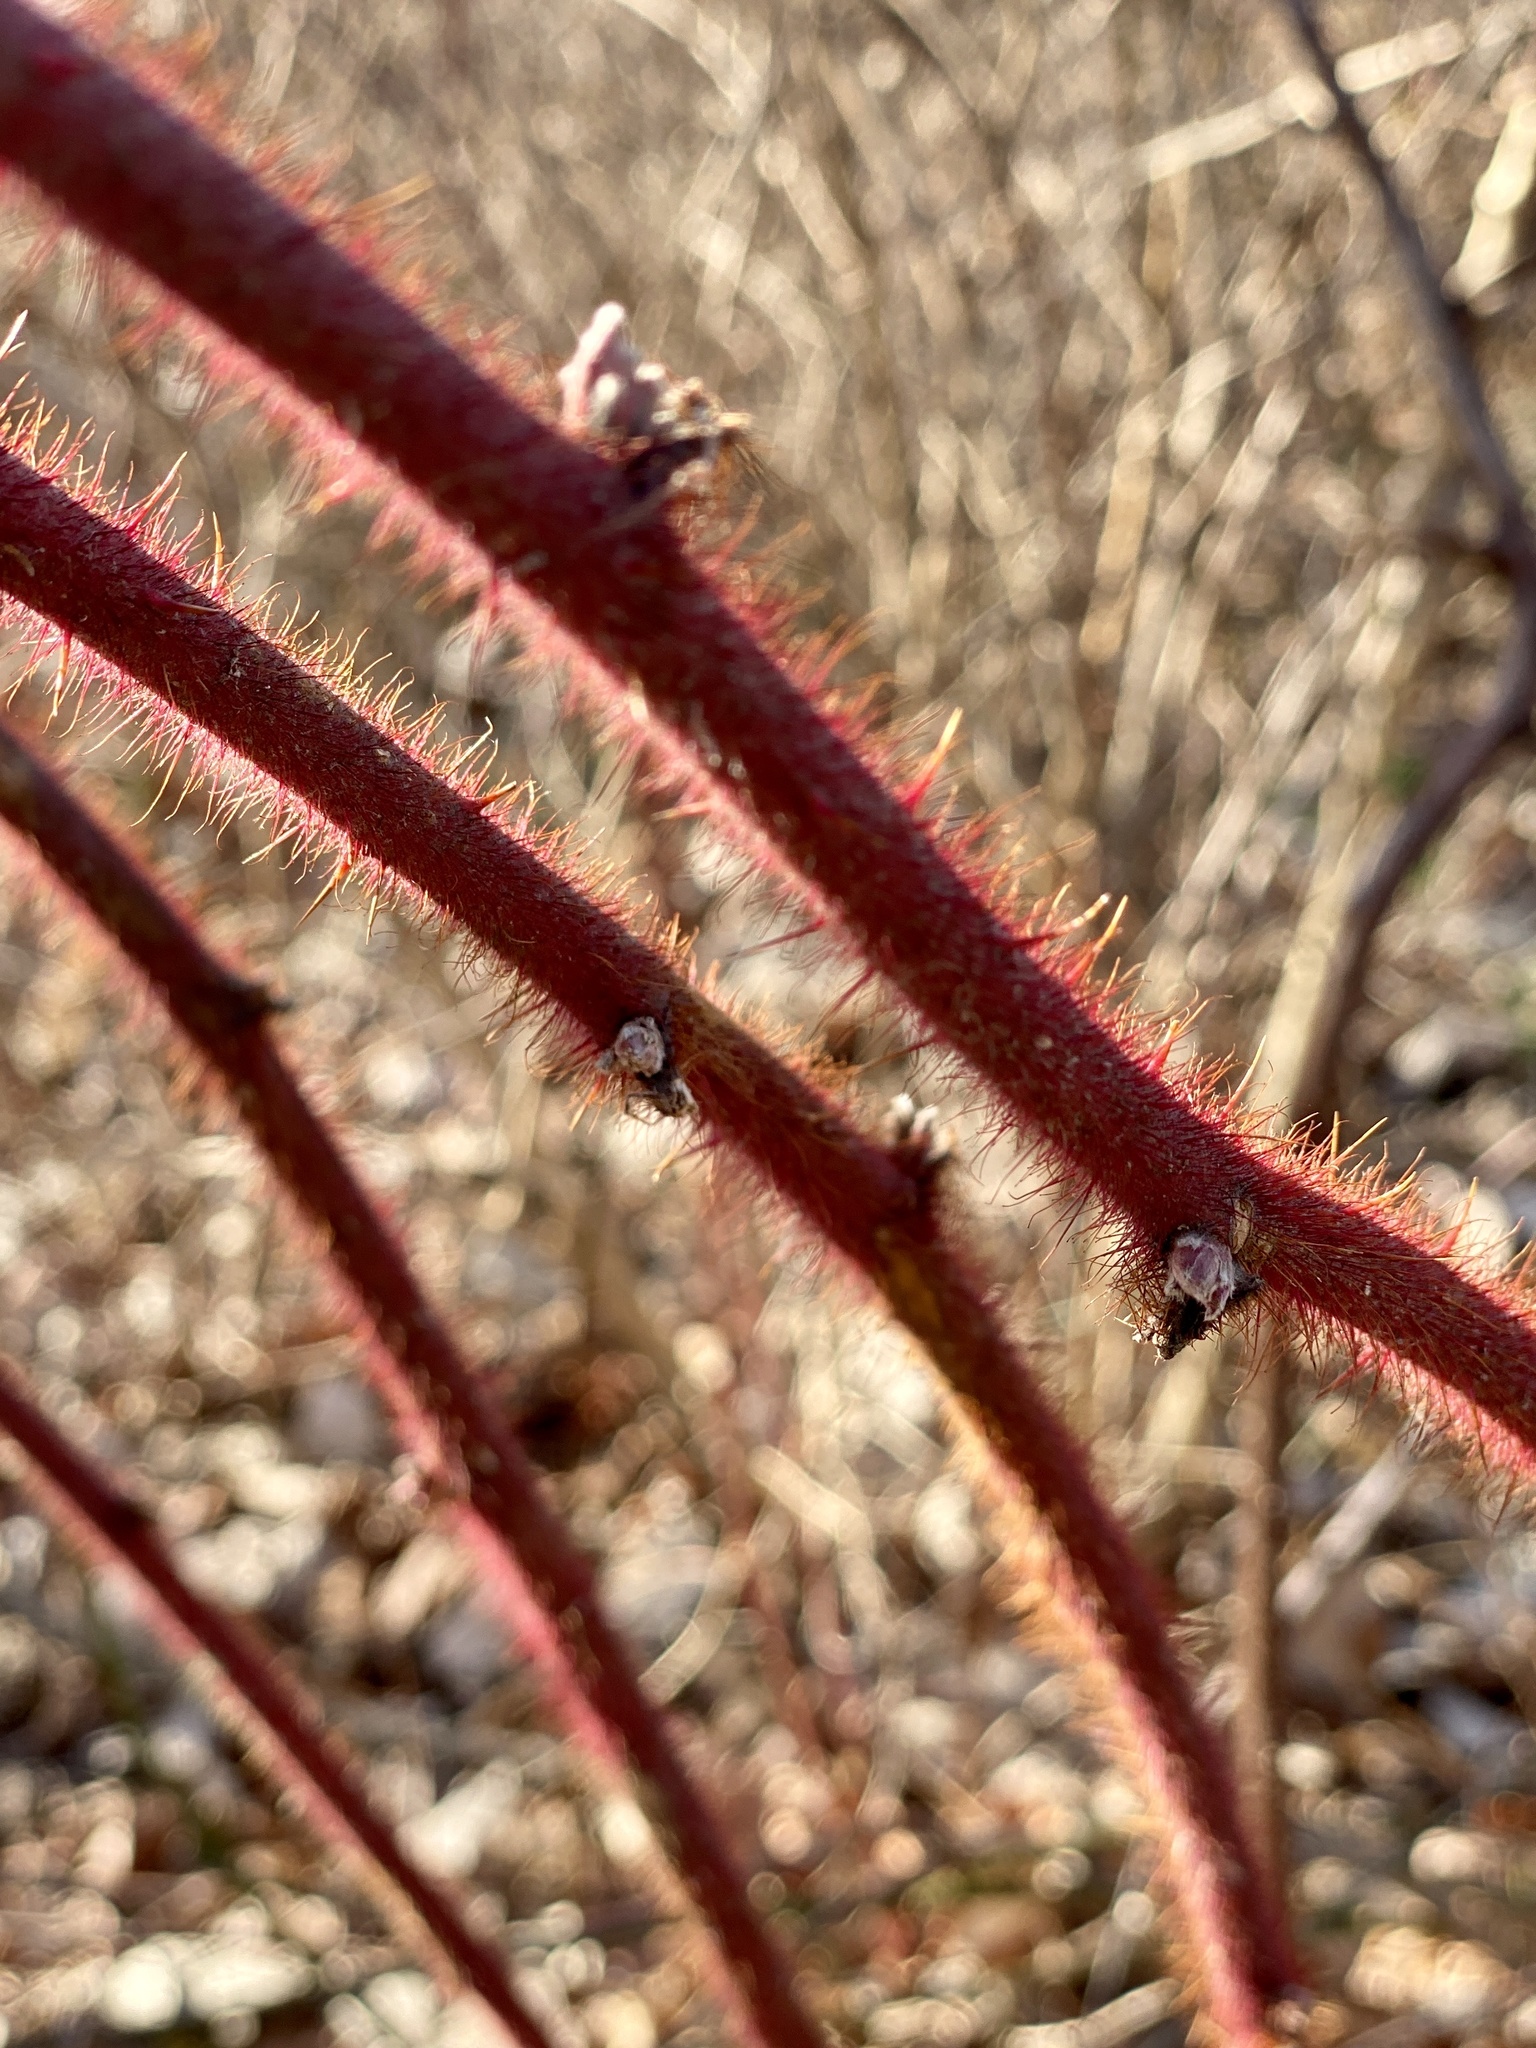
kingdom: Plantae
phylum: Tracheophyta
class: Magnoliopsida
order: Rosales
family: Rosaceae
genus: Rubus
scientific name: Rubus phoenicolasius
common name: Japanese wineberry
